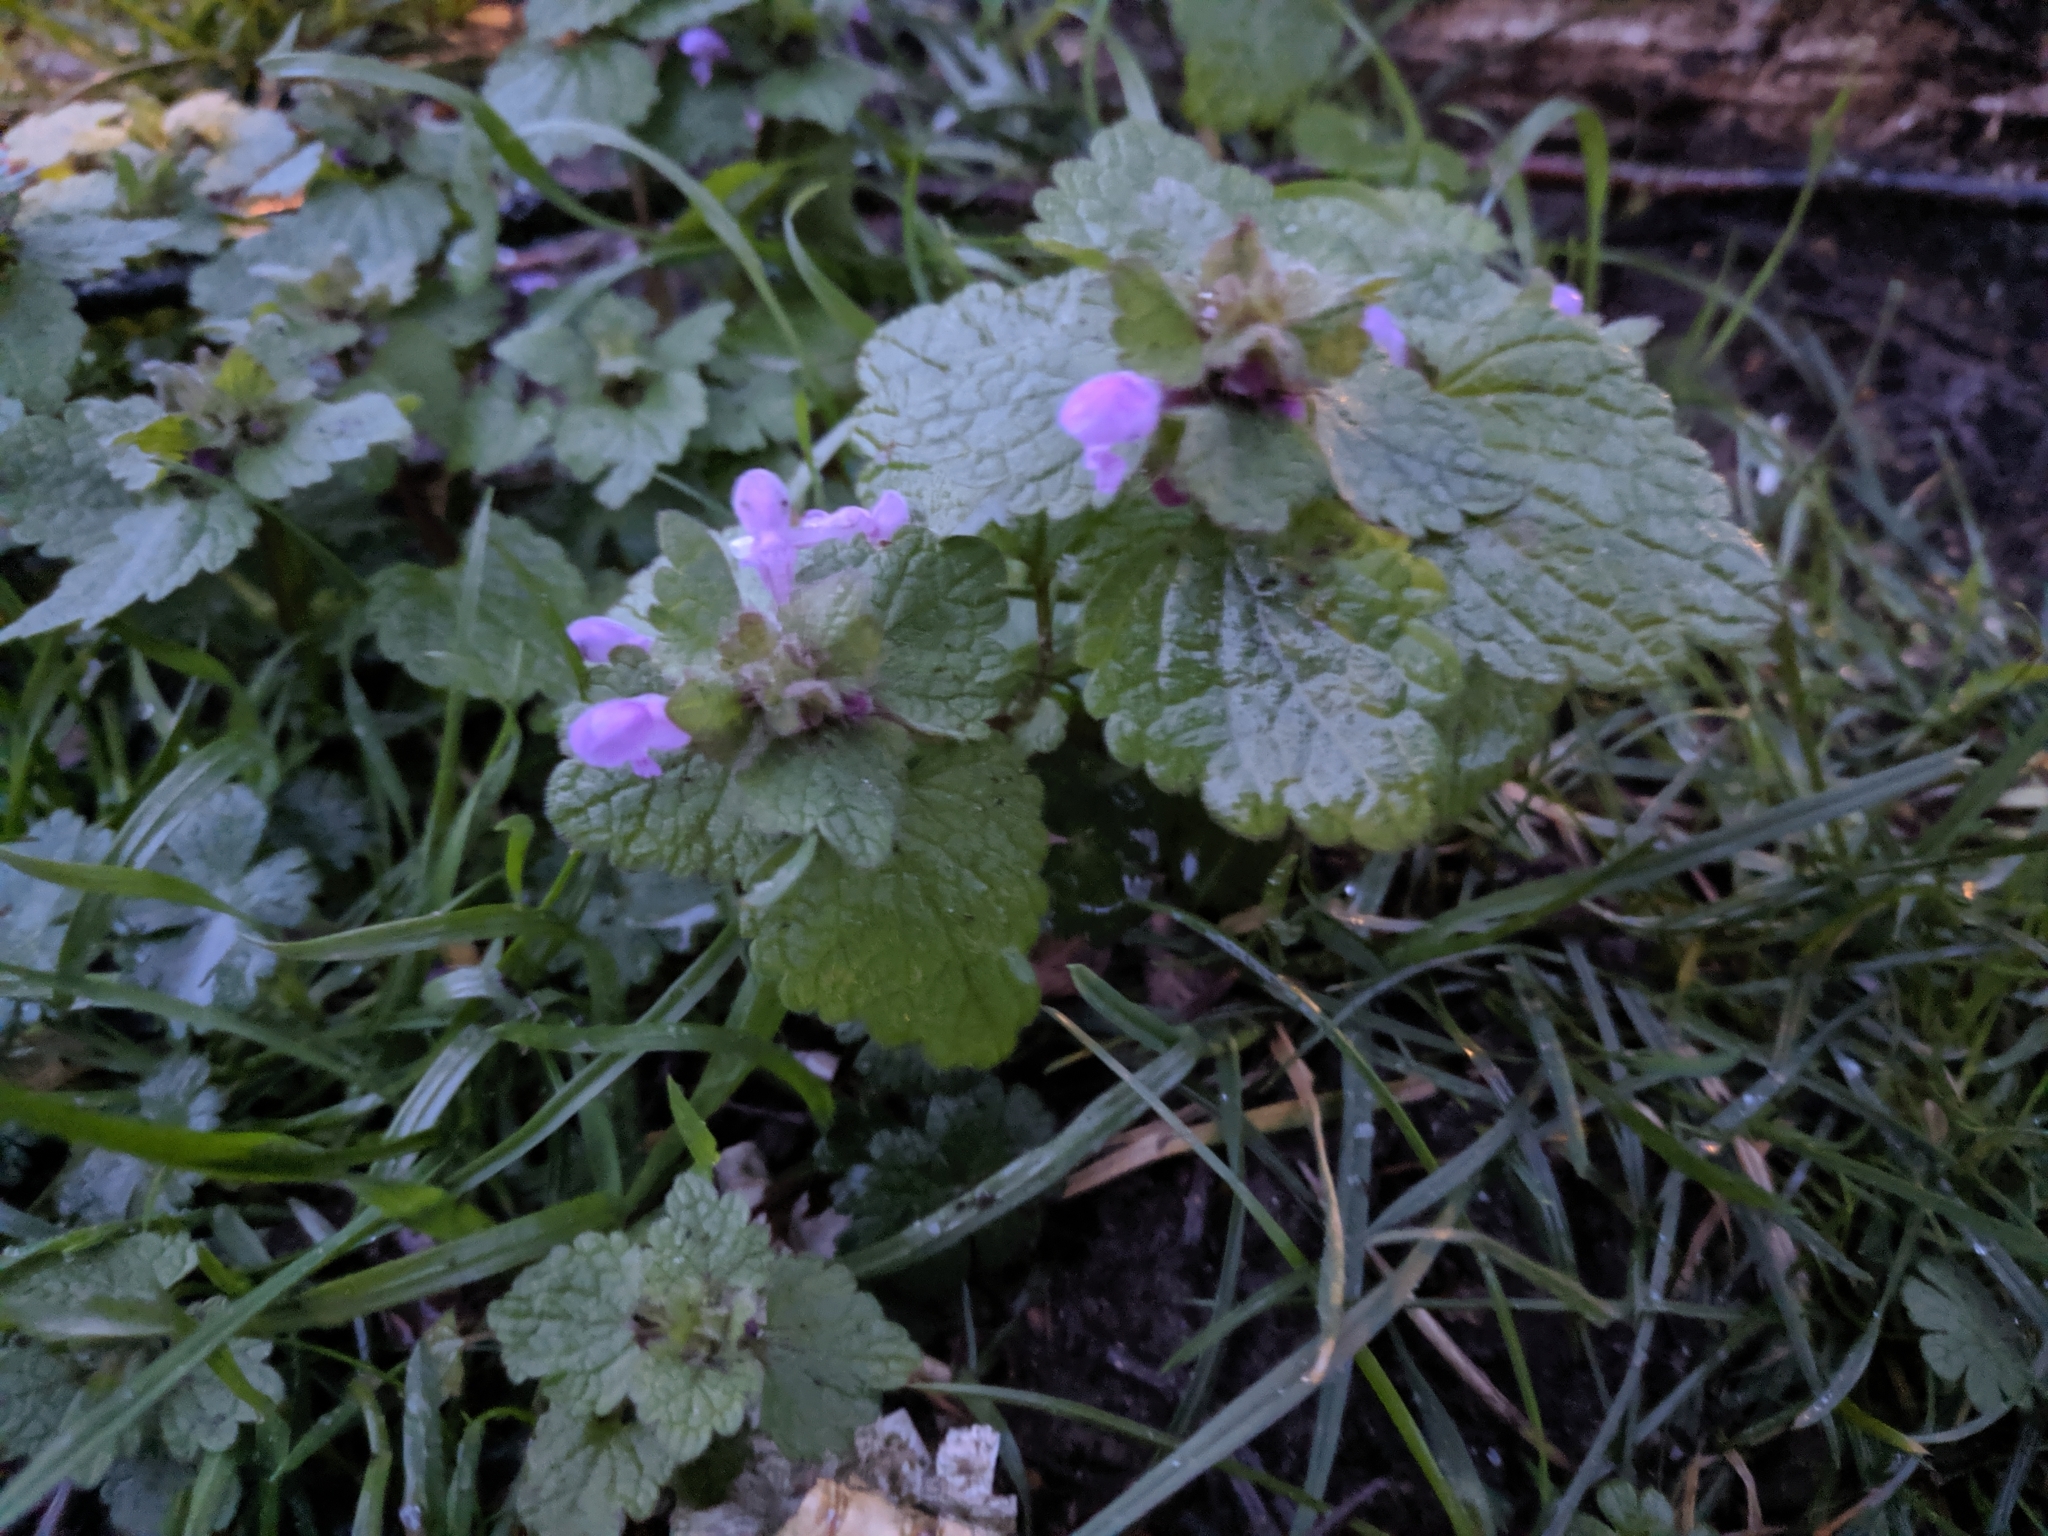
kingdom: Plantae
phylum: Tracheophyta
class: Magnoliopsida
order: Lamiales
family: Lamiaceae
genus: Lamium
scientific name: Lamium purpureum
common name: Red dead-nettle
